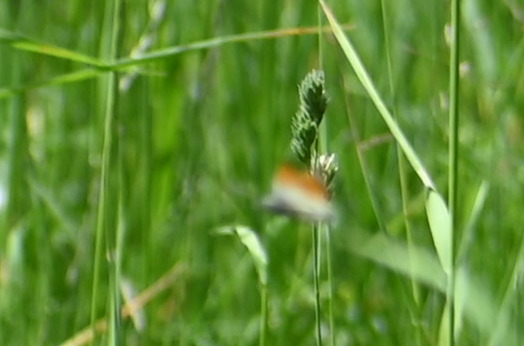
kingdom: Animalia
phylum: Arthropoda
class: Insecta
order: Lepidoptera
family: Pieridae
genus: Anthocharis
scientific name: Anthocharis cardamines
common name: Orange-tip
